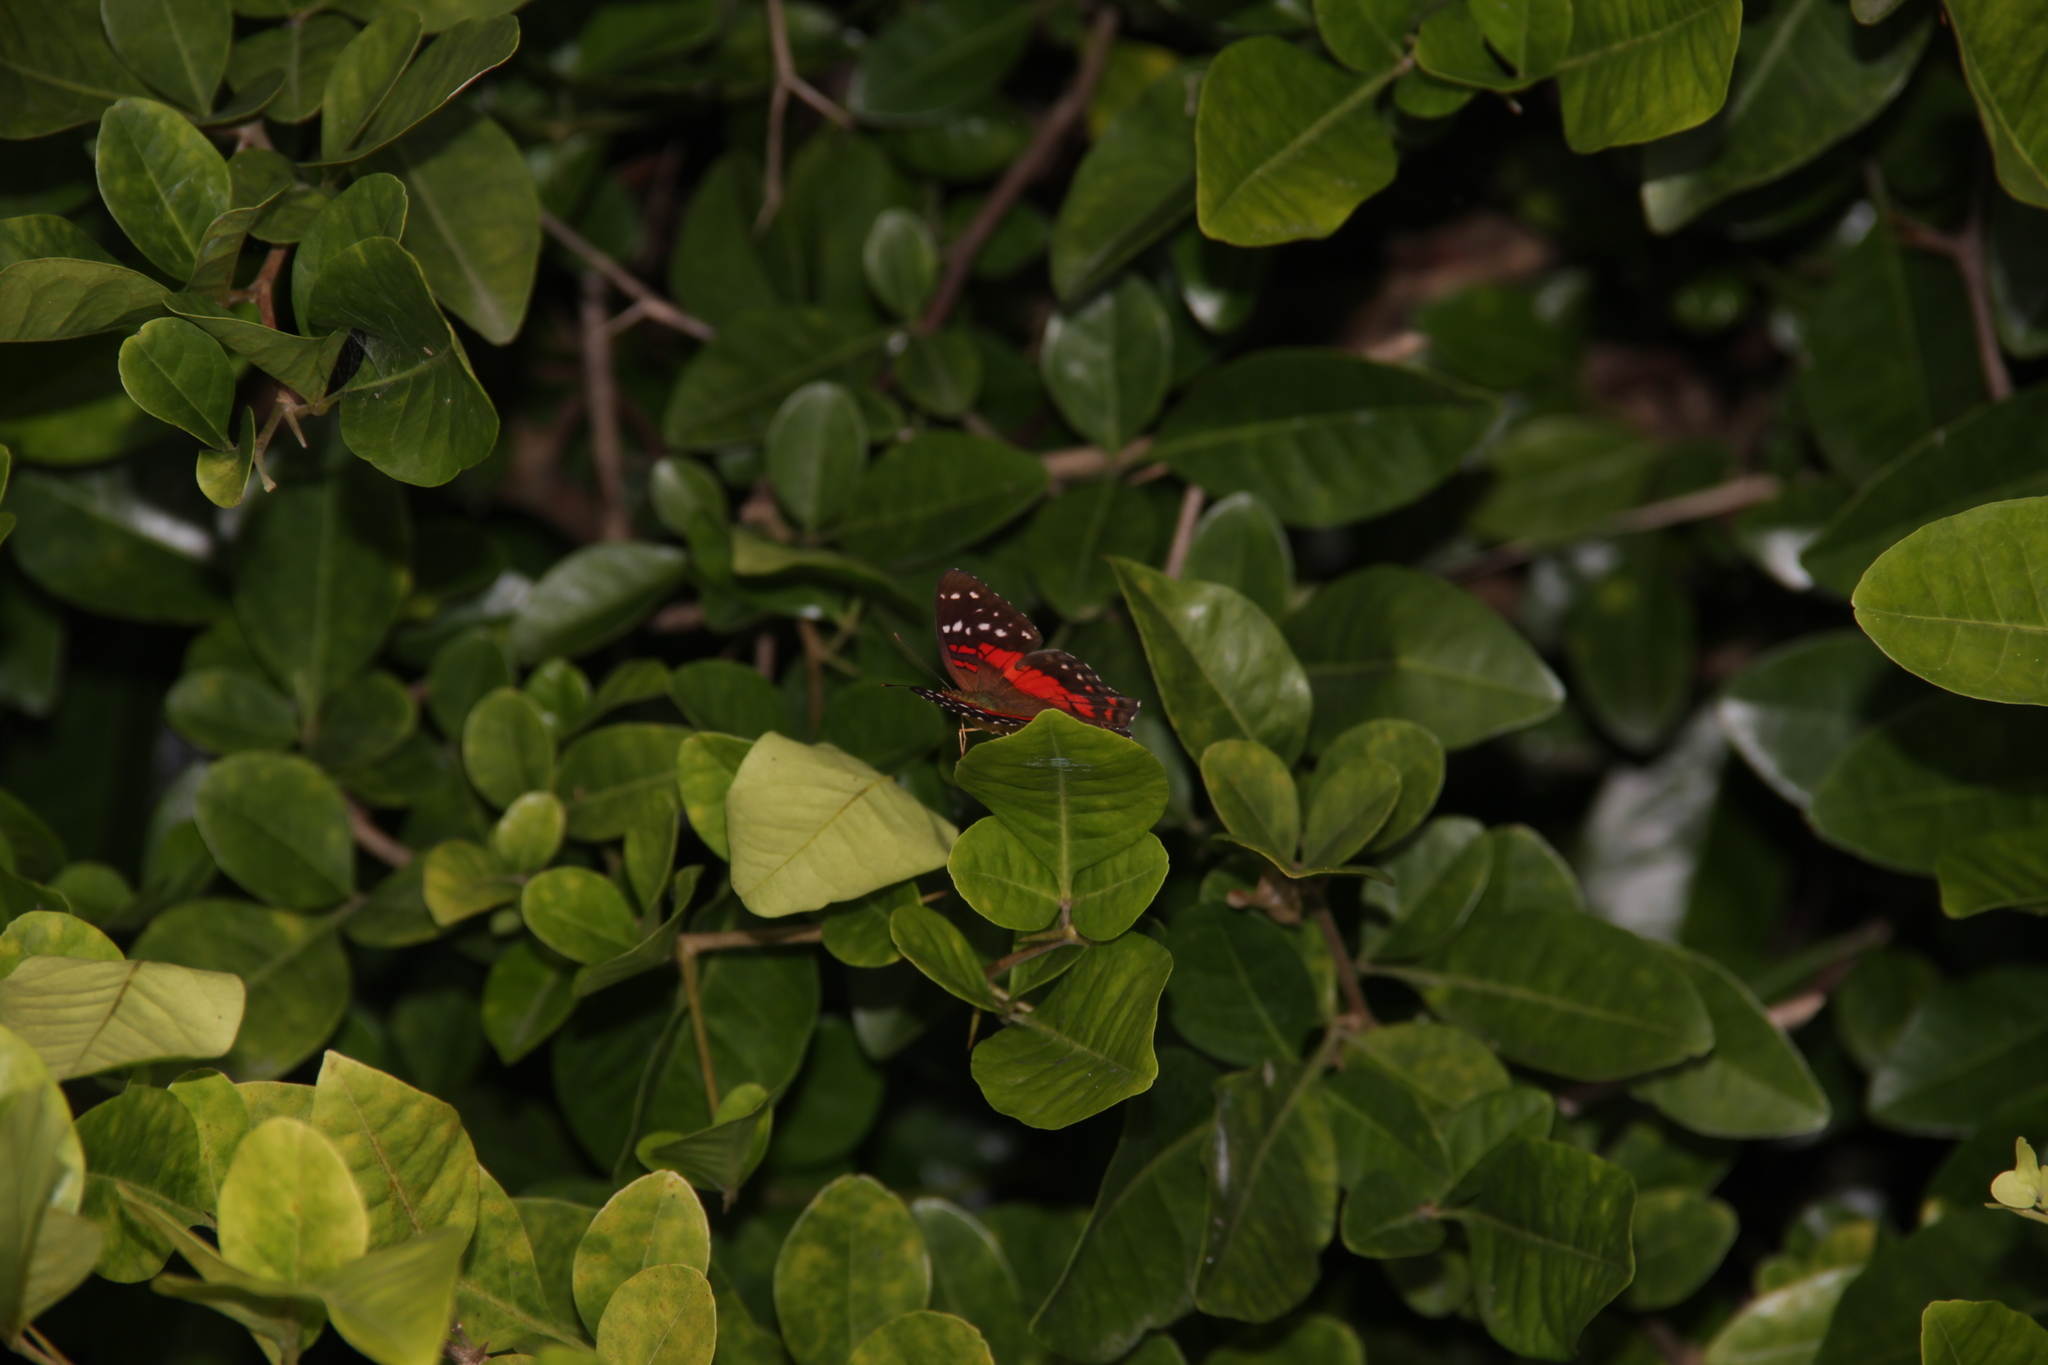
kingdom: Animalia
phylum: Arthropoda
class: Insecta
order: Lepidoptera
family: Nymphalidae
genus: Anartia
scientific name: Anartia amathea
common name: Red peacock
